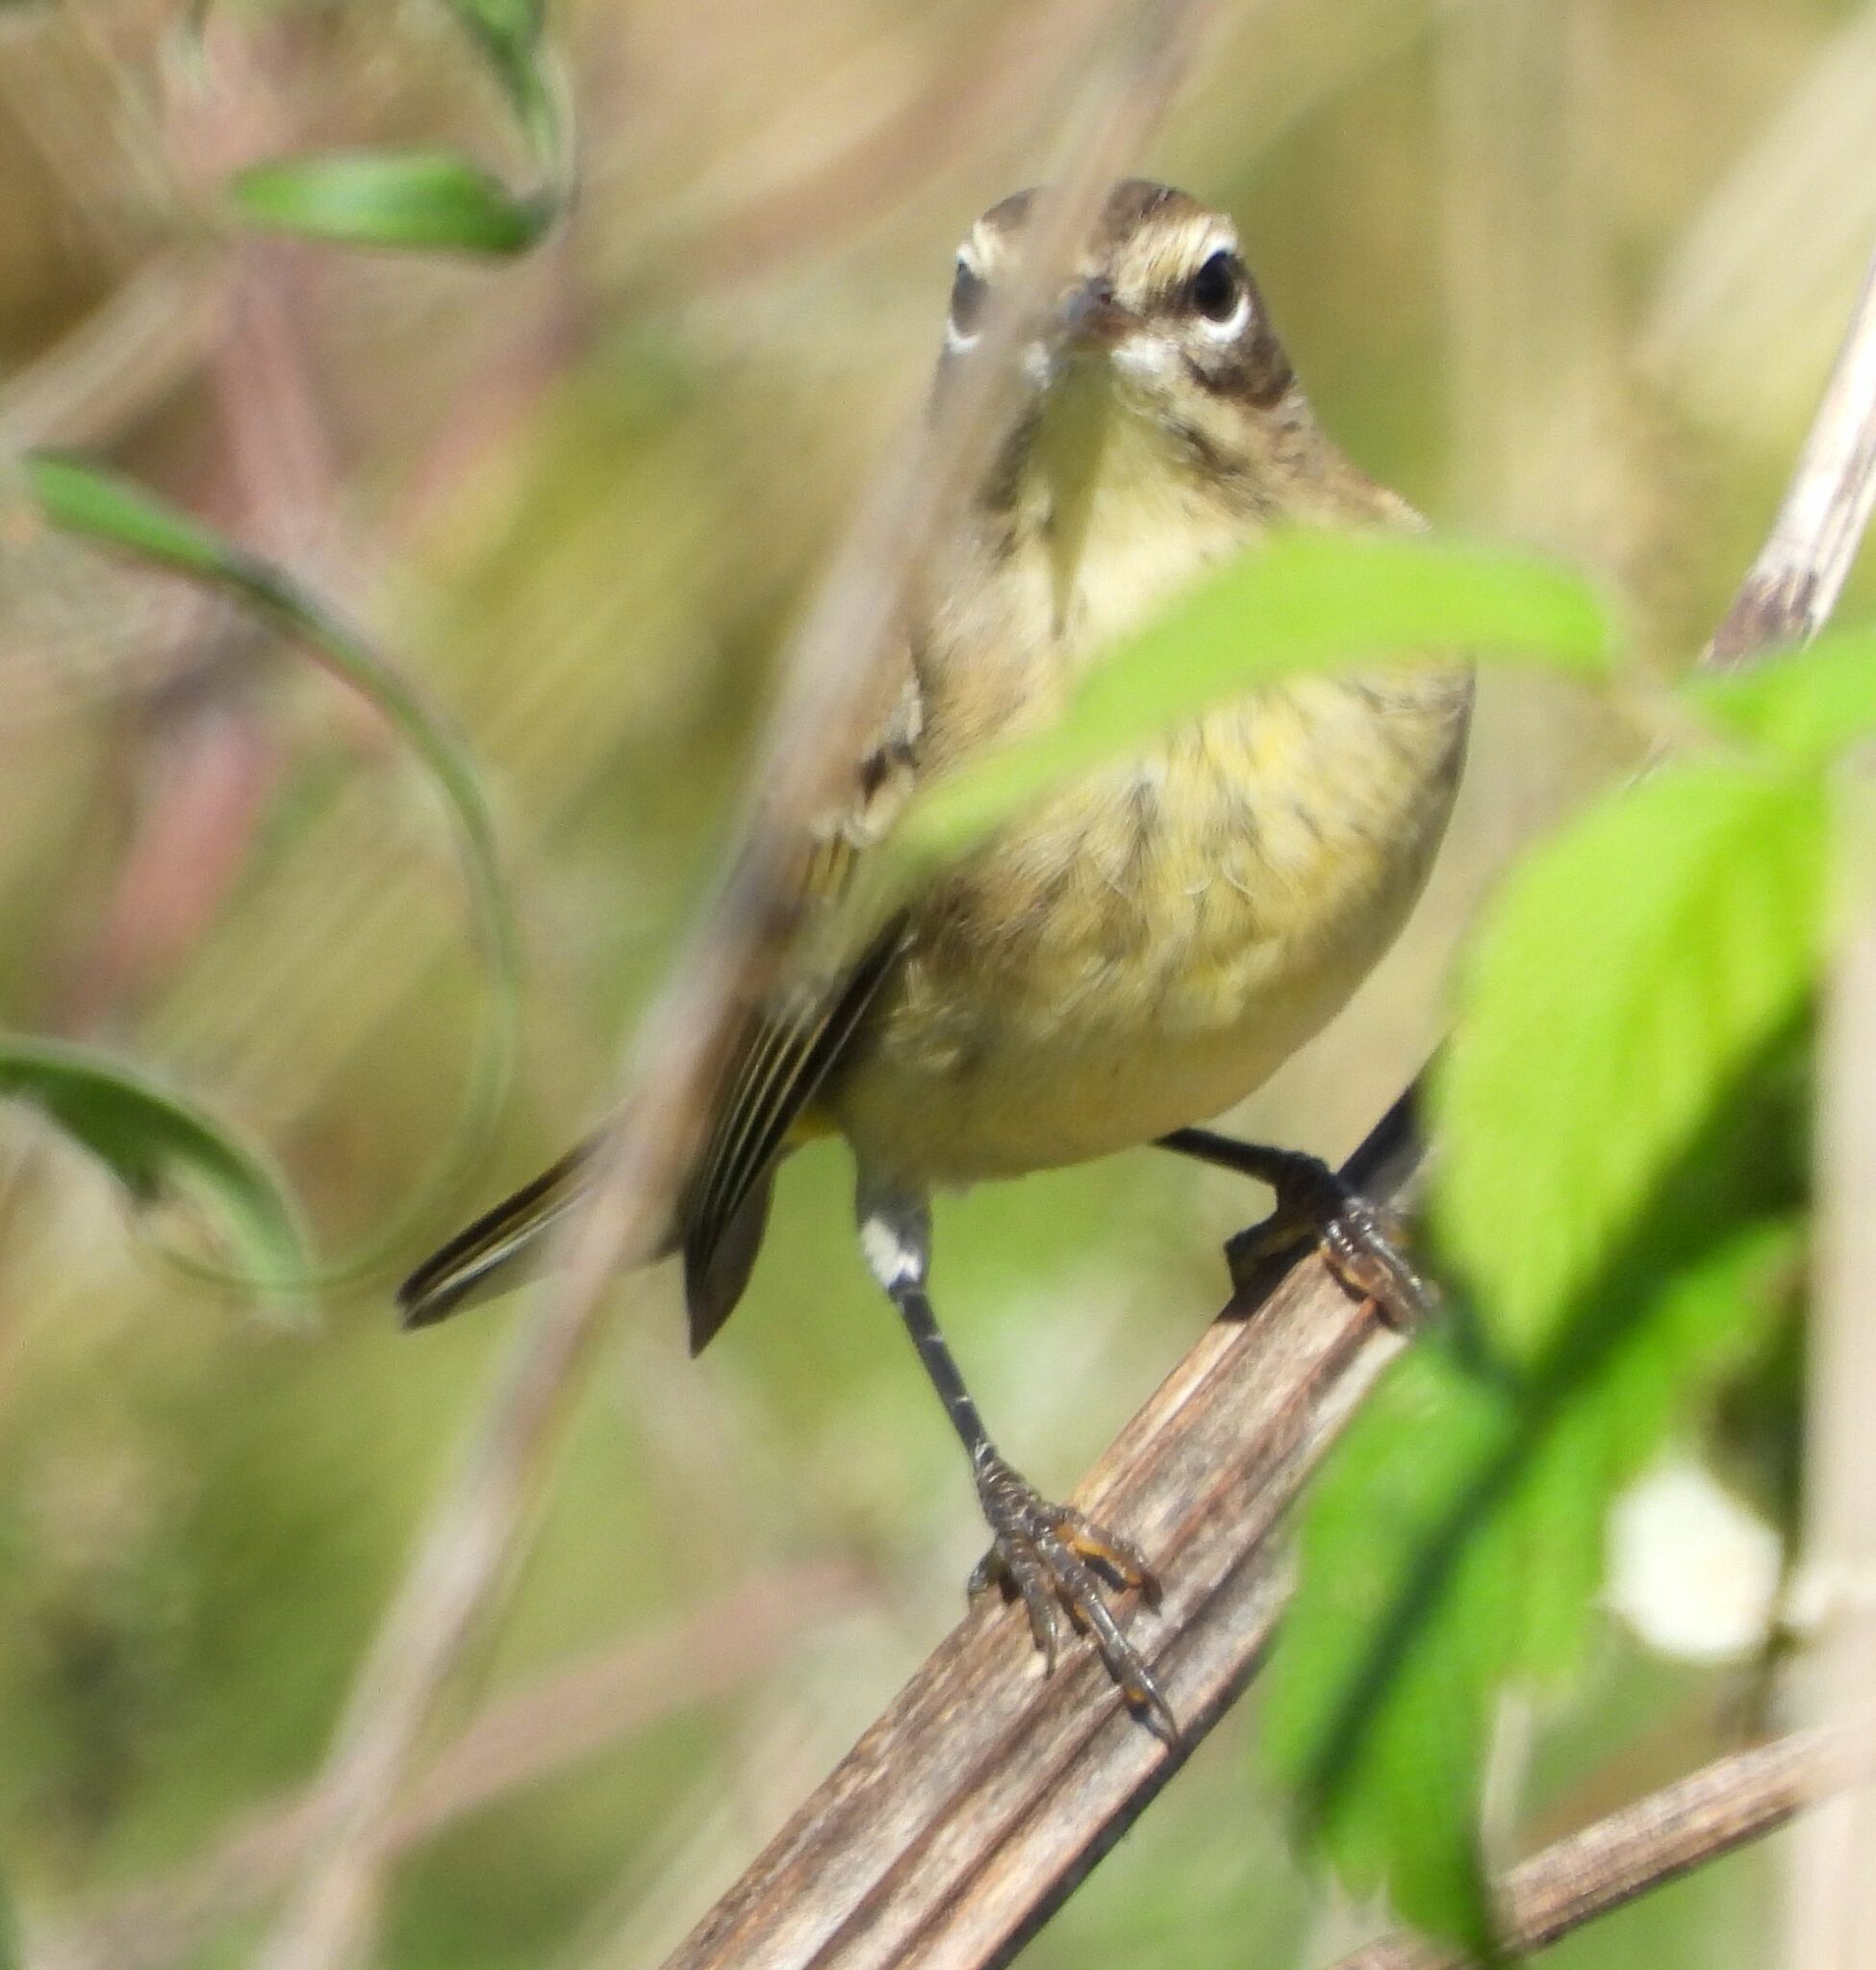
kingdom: Animalia
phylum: Chordata
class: Aves
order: Passeriformes
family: Parulidae
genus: Setophaga
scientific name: Setophaga palmarum
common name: Palm warbler
